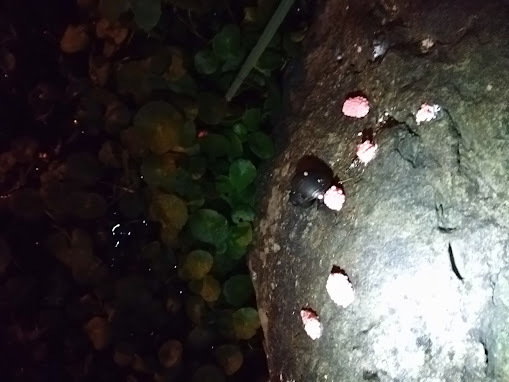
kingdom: Animalia
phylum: Mollusca
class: Gastropoda
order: Architaenioglossa
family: Ampullariidae
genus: Pomacea
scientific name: Pomacea canaliculata
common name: Channeled applesnail
